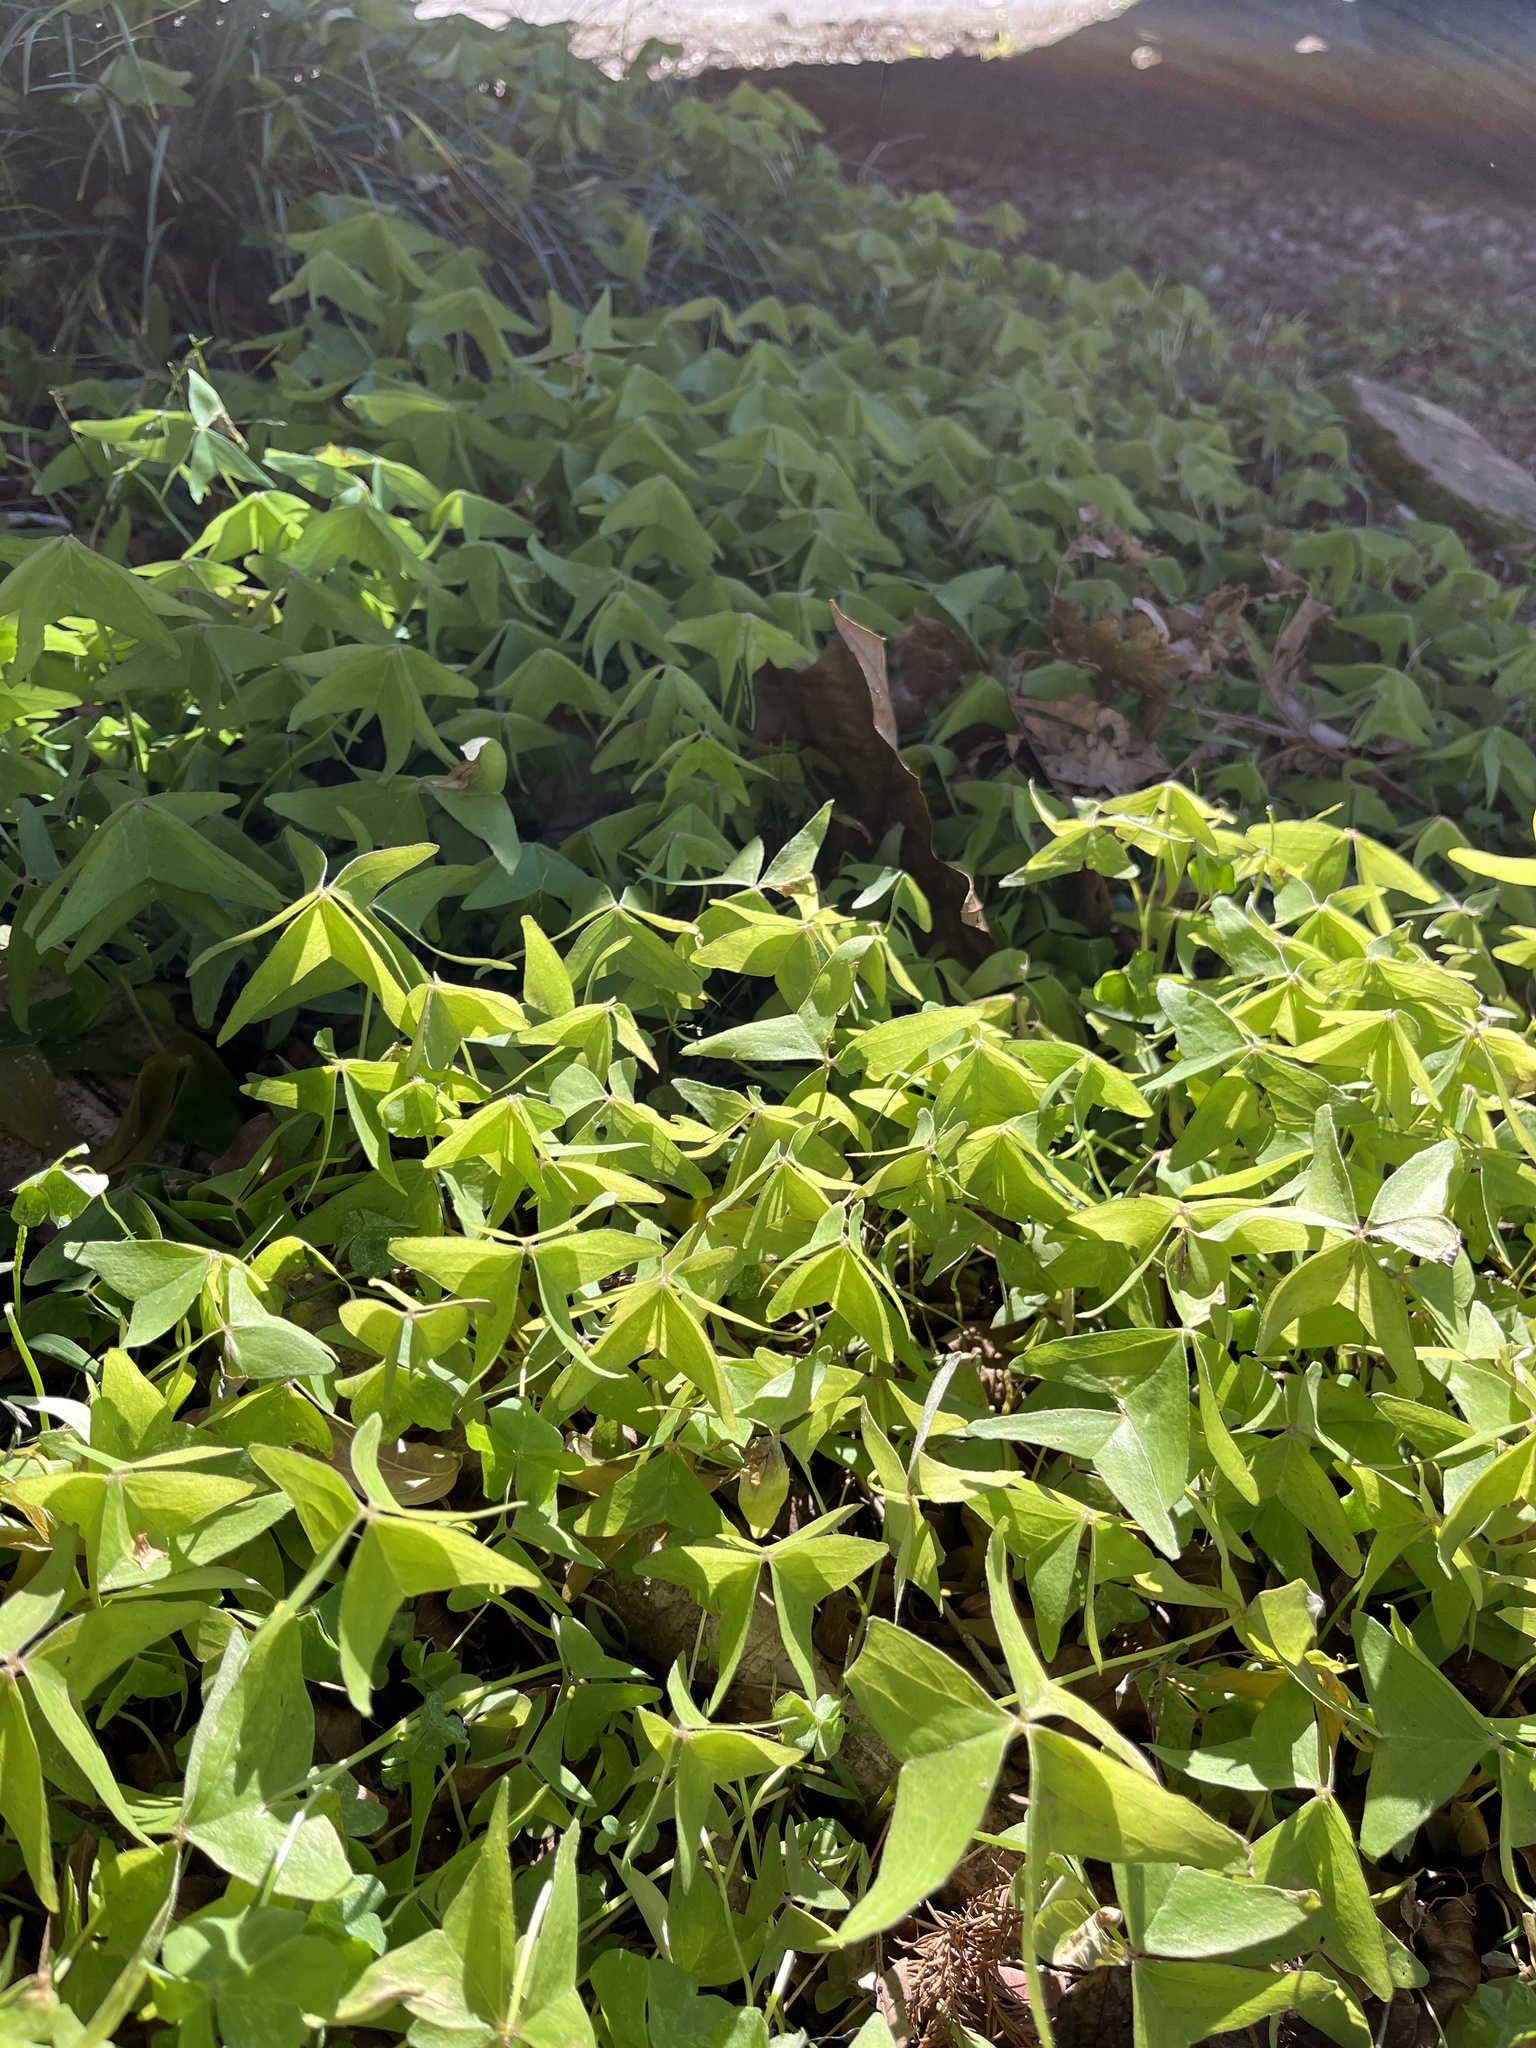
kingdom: Plantae
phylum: Tracheophyta
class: Magnoliopsida
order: Oxalidales
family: Oxalidaceae
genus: Oxalis
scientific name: Oxalis intermedia
